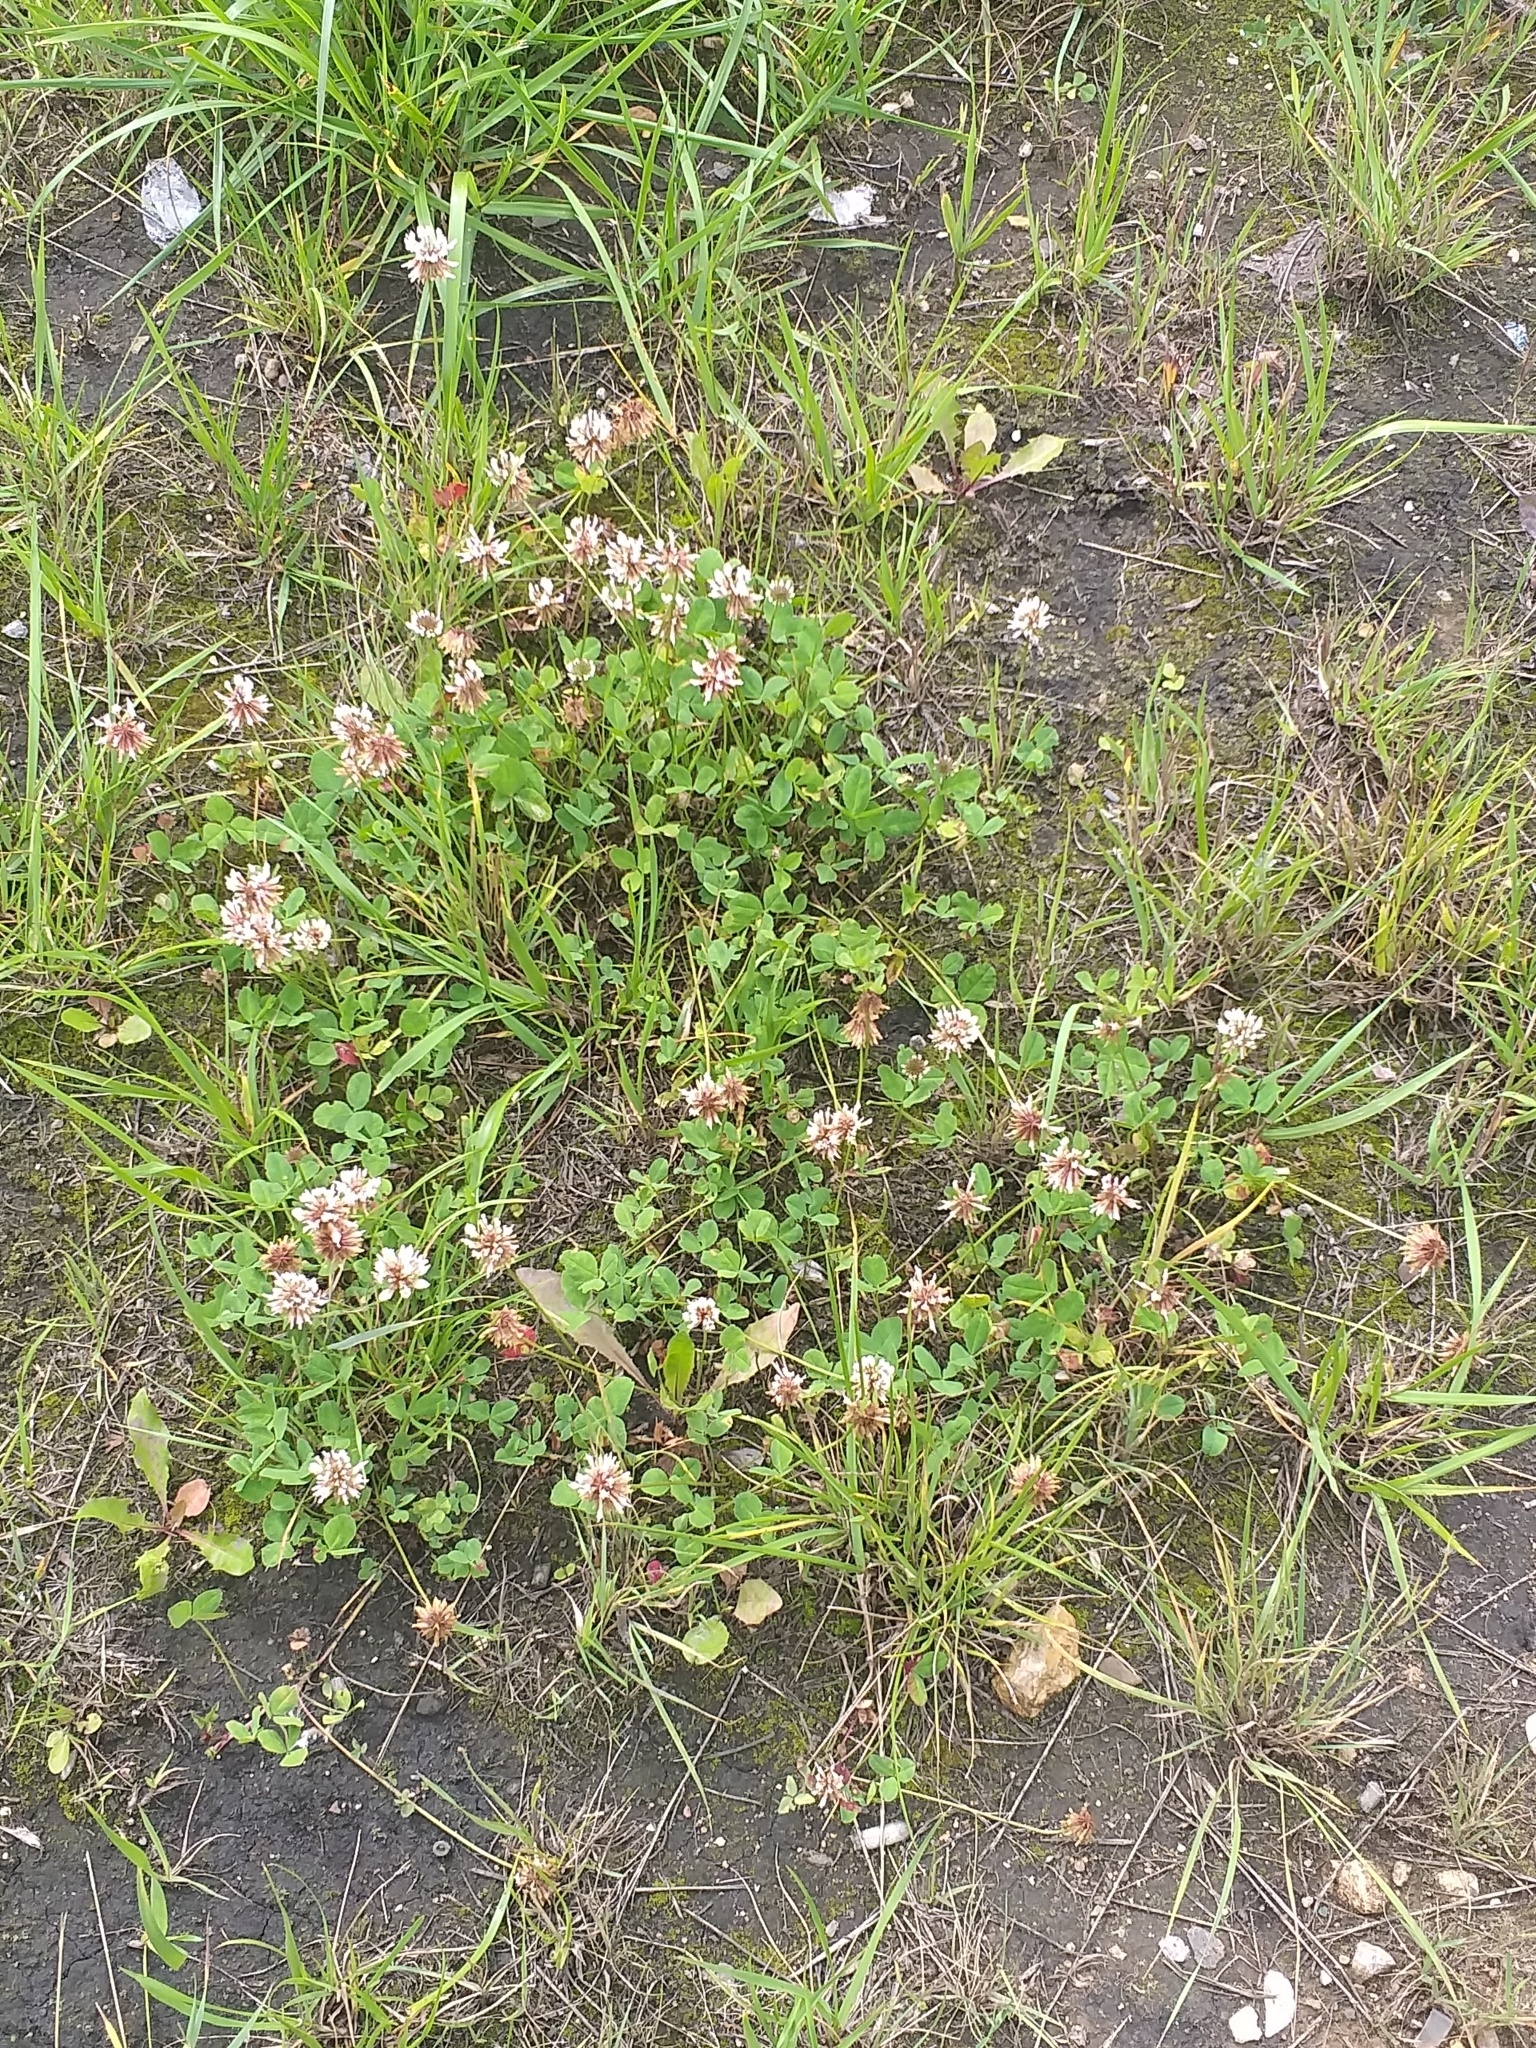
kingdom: Plantae
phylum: Tracheophyta
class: Magnoliopsida
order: Fabales
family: Fabaceae
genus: Trifolium
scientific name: Trifolium repens
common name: White clover
